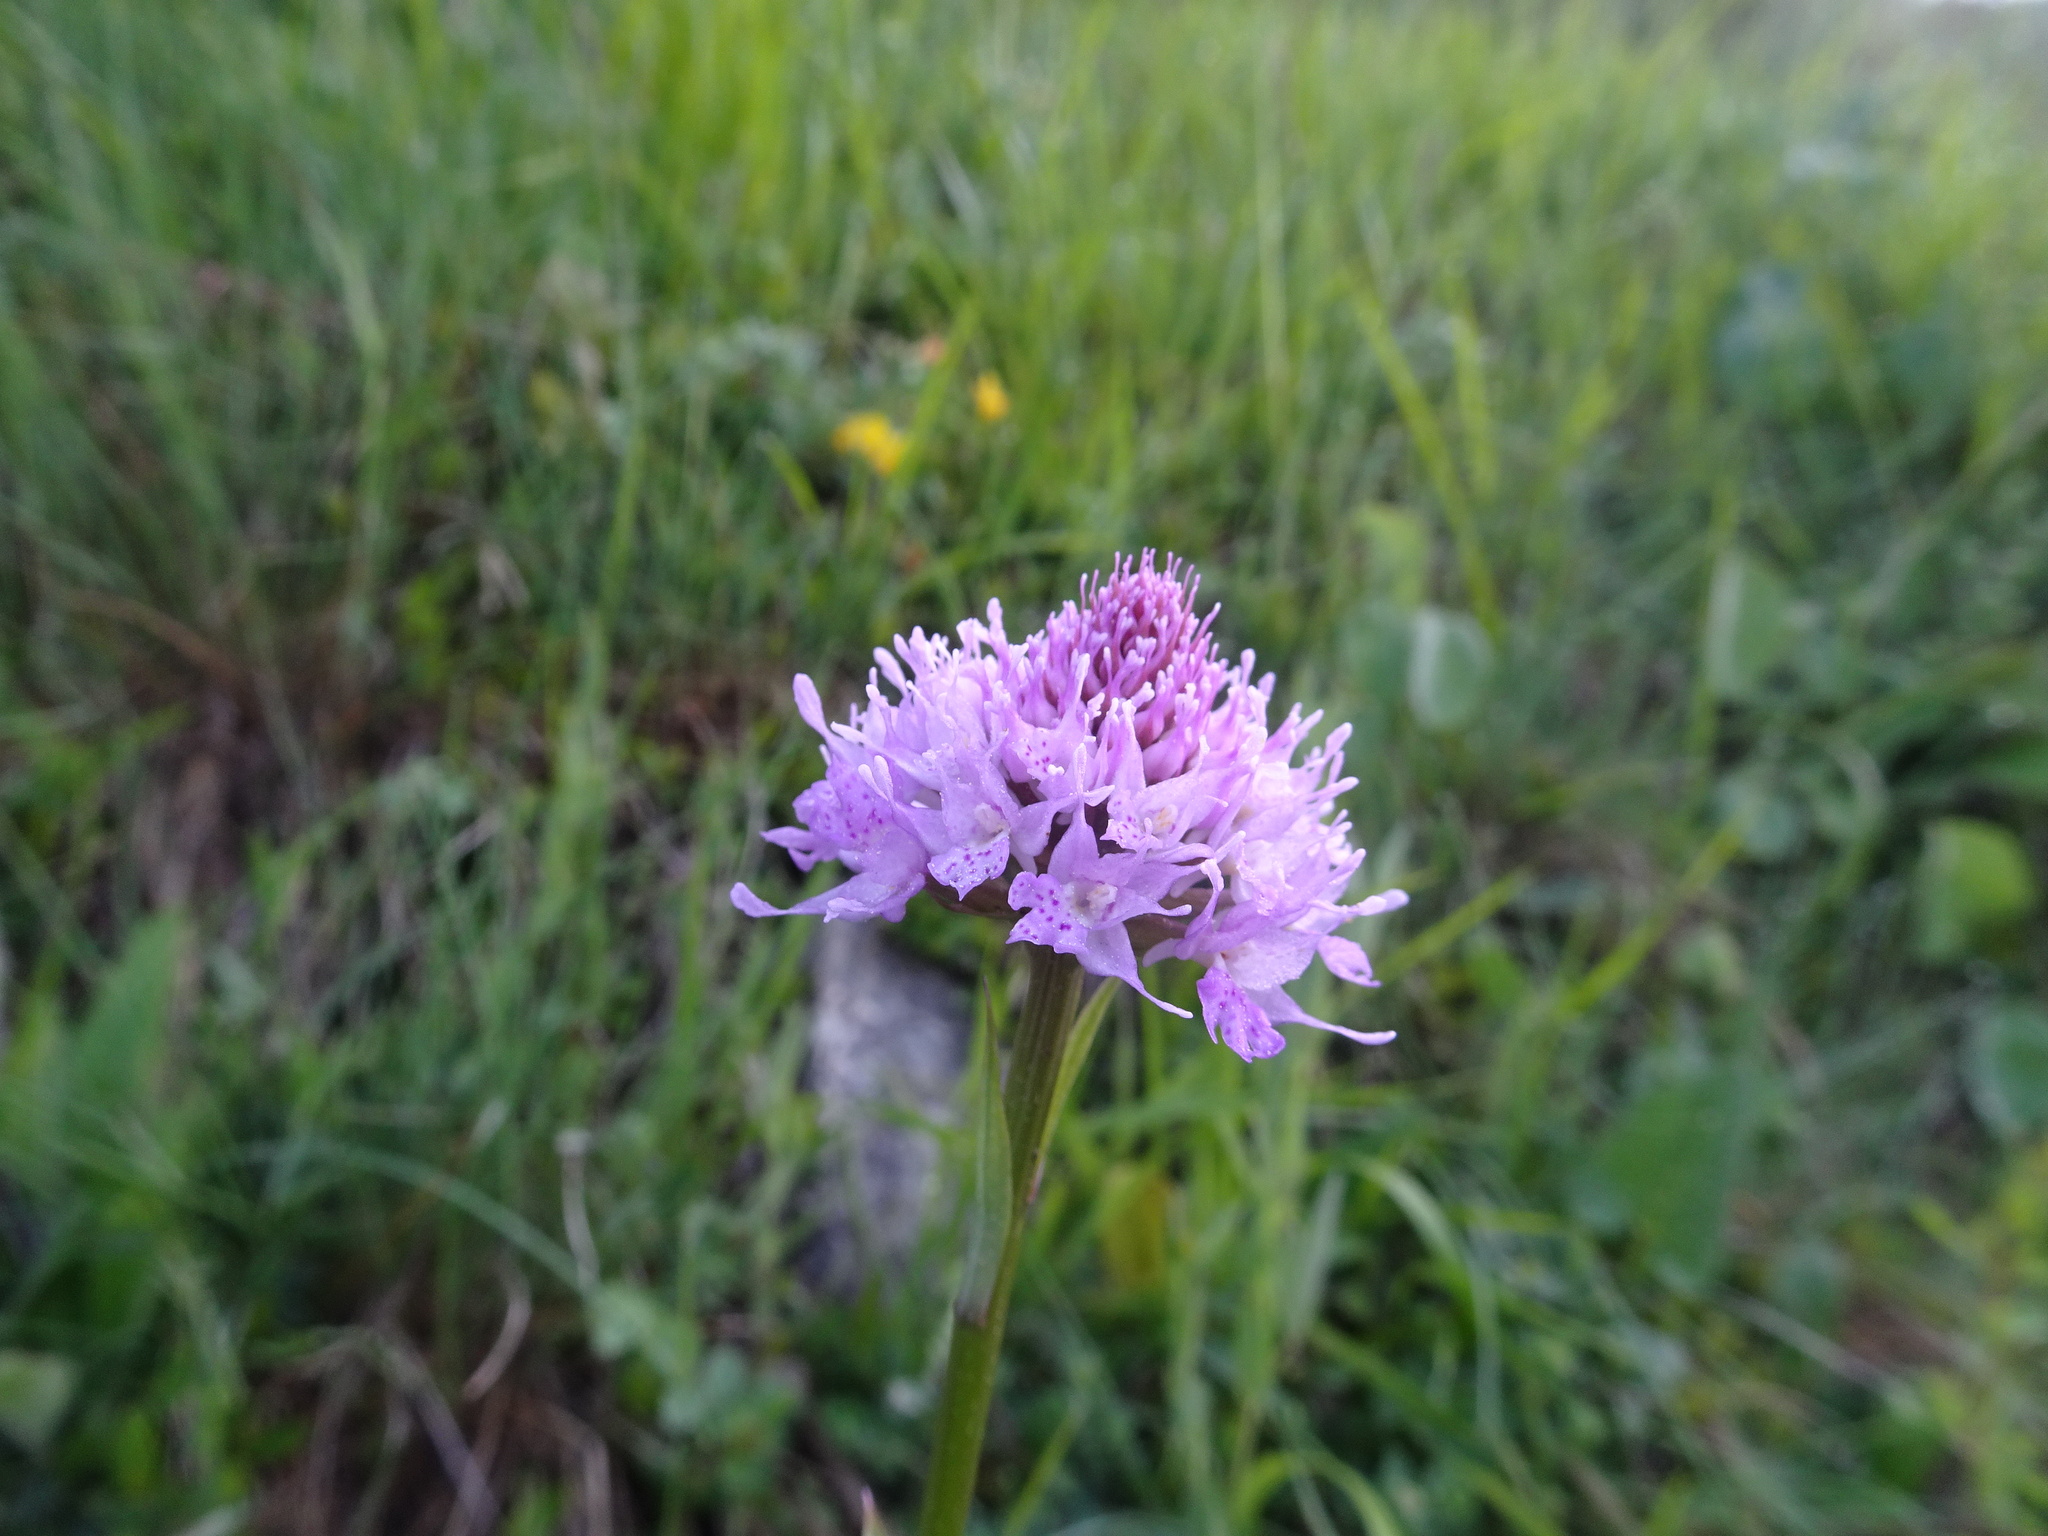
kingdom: Plantae
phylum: Tracheophyta
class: Liliopsida
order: Asparagales
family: Orchidaceae
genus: Traunsteinera
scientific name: Traunsteinera globosa
